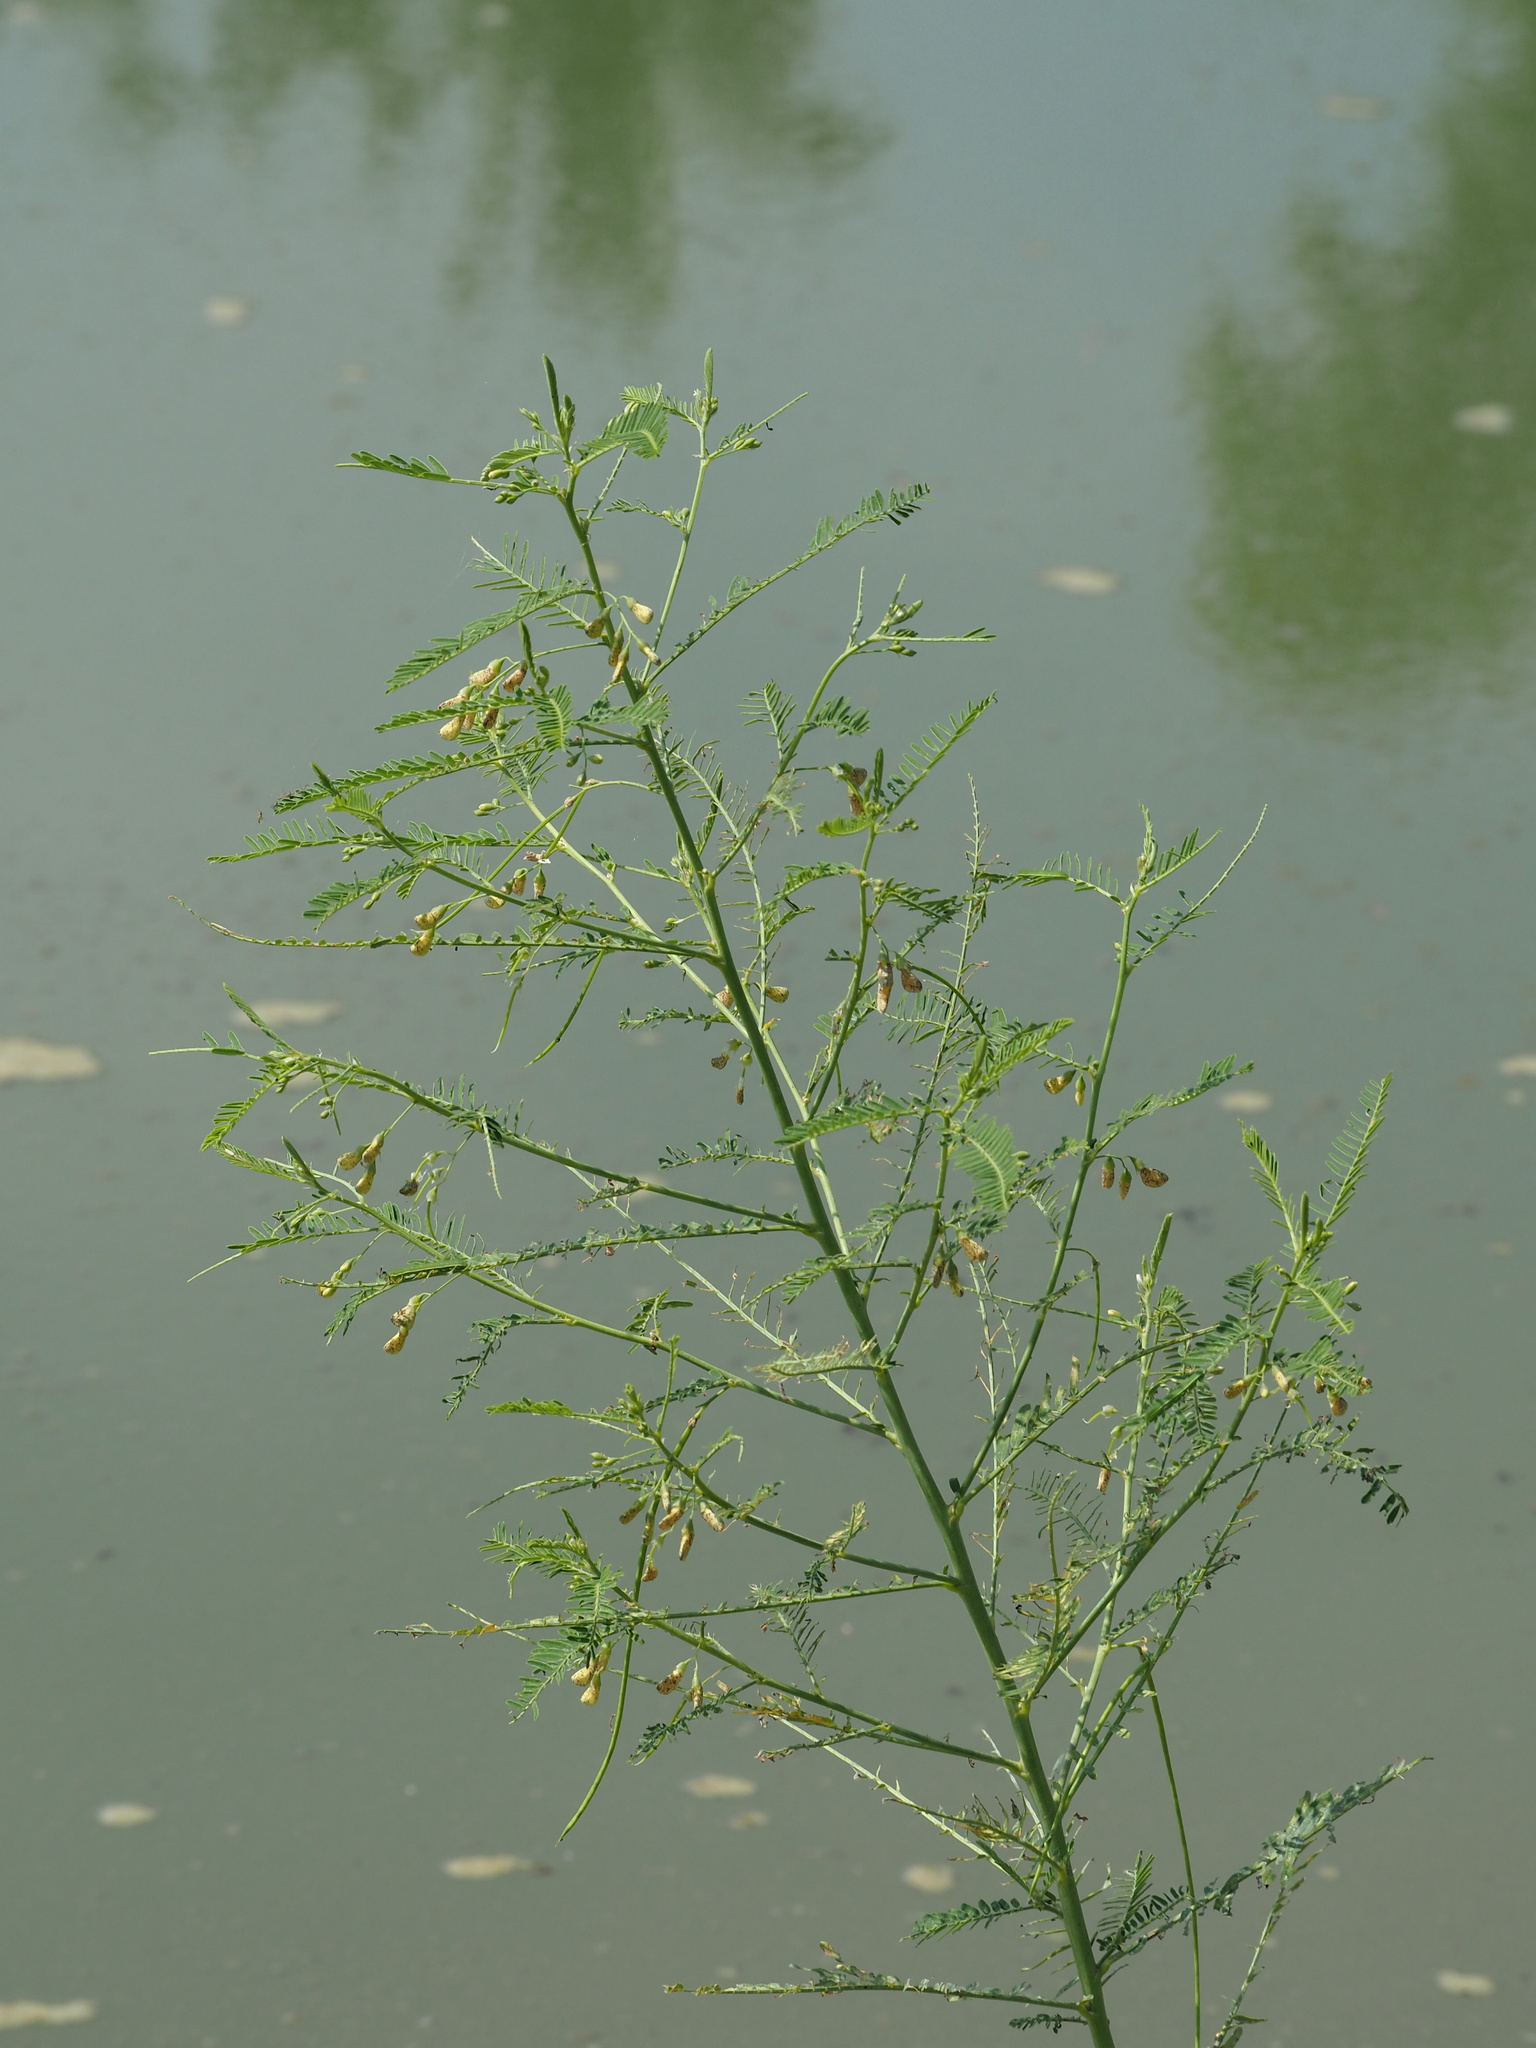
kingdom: Plantae
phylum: Tracheophyta
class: Magnoliopsida
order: Fabales
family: Fabaceae
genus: Sesbania
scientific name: Sesbania cannabina
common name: Canicha
